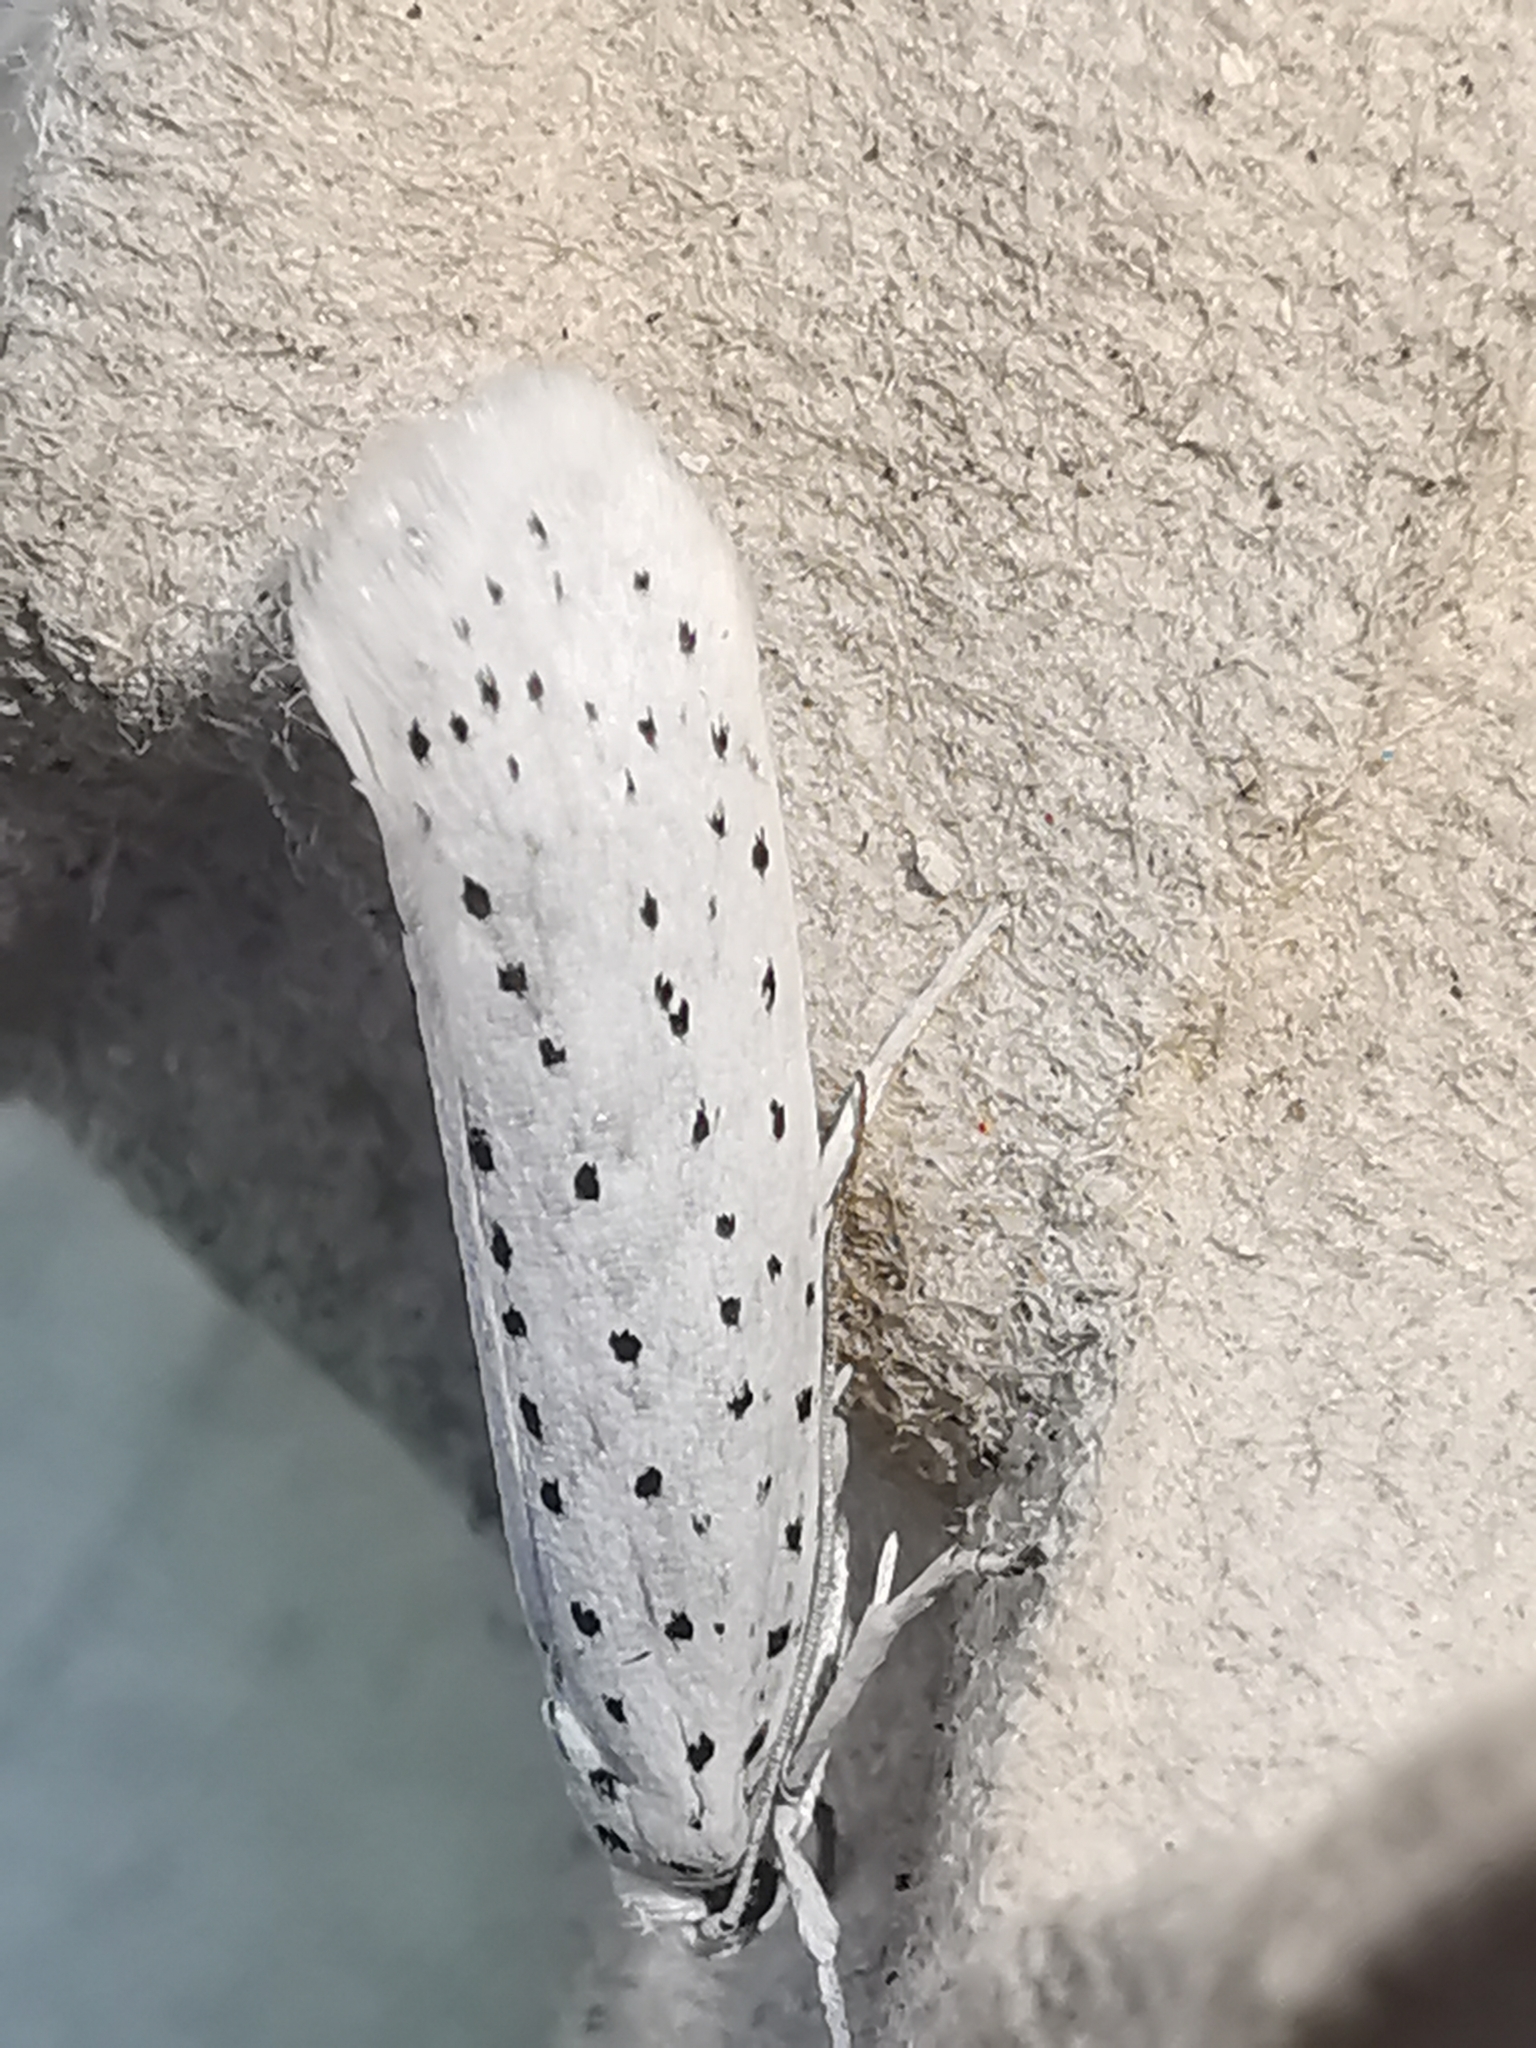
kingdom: Animalia
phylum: Arthropoda
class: Insecta
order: Lepidoptera
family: Yponomeutidae
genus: Yponomeuta
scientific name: Yponomeuta evonymella
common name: Bird-cherry ermine
